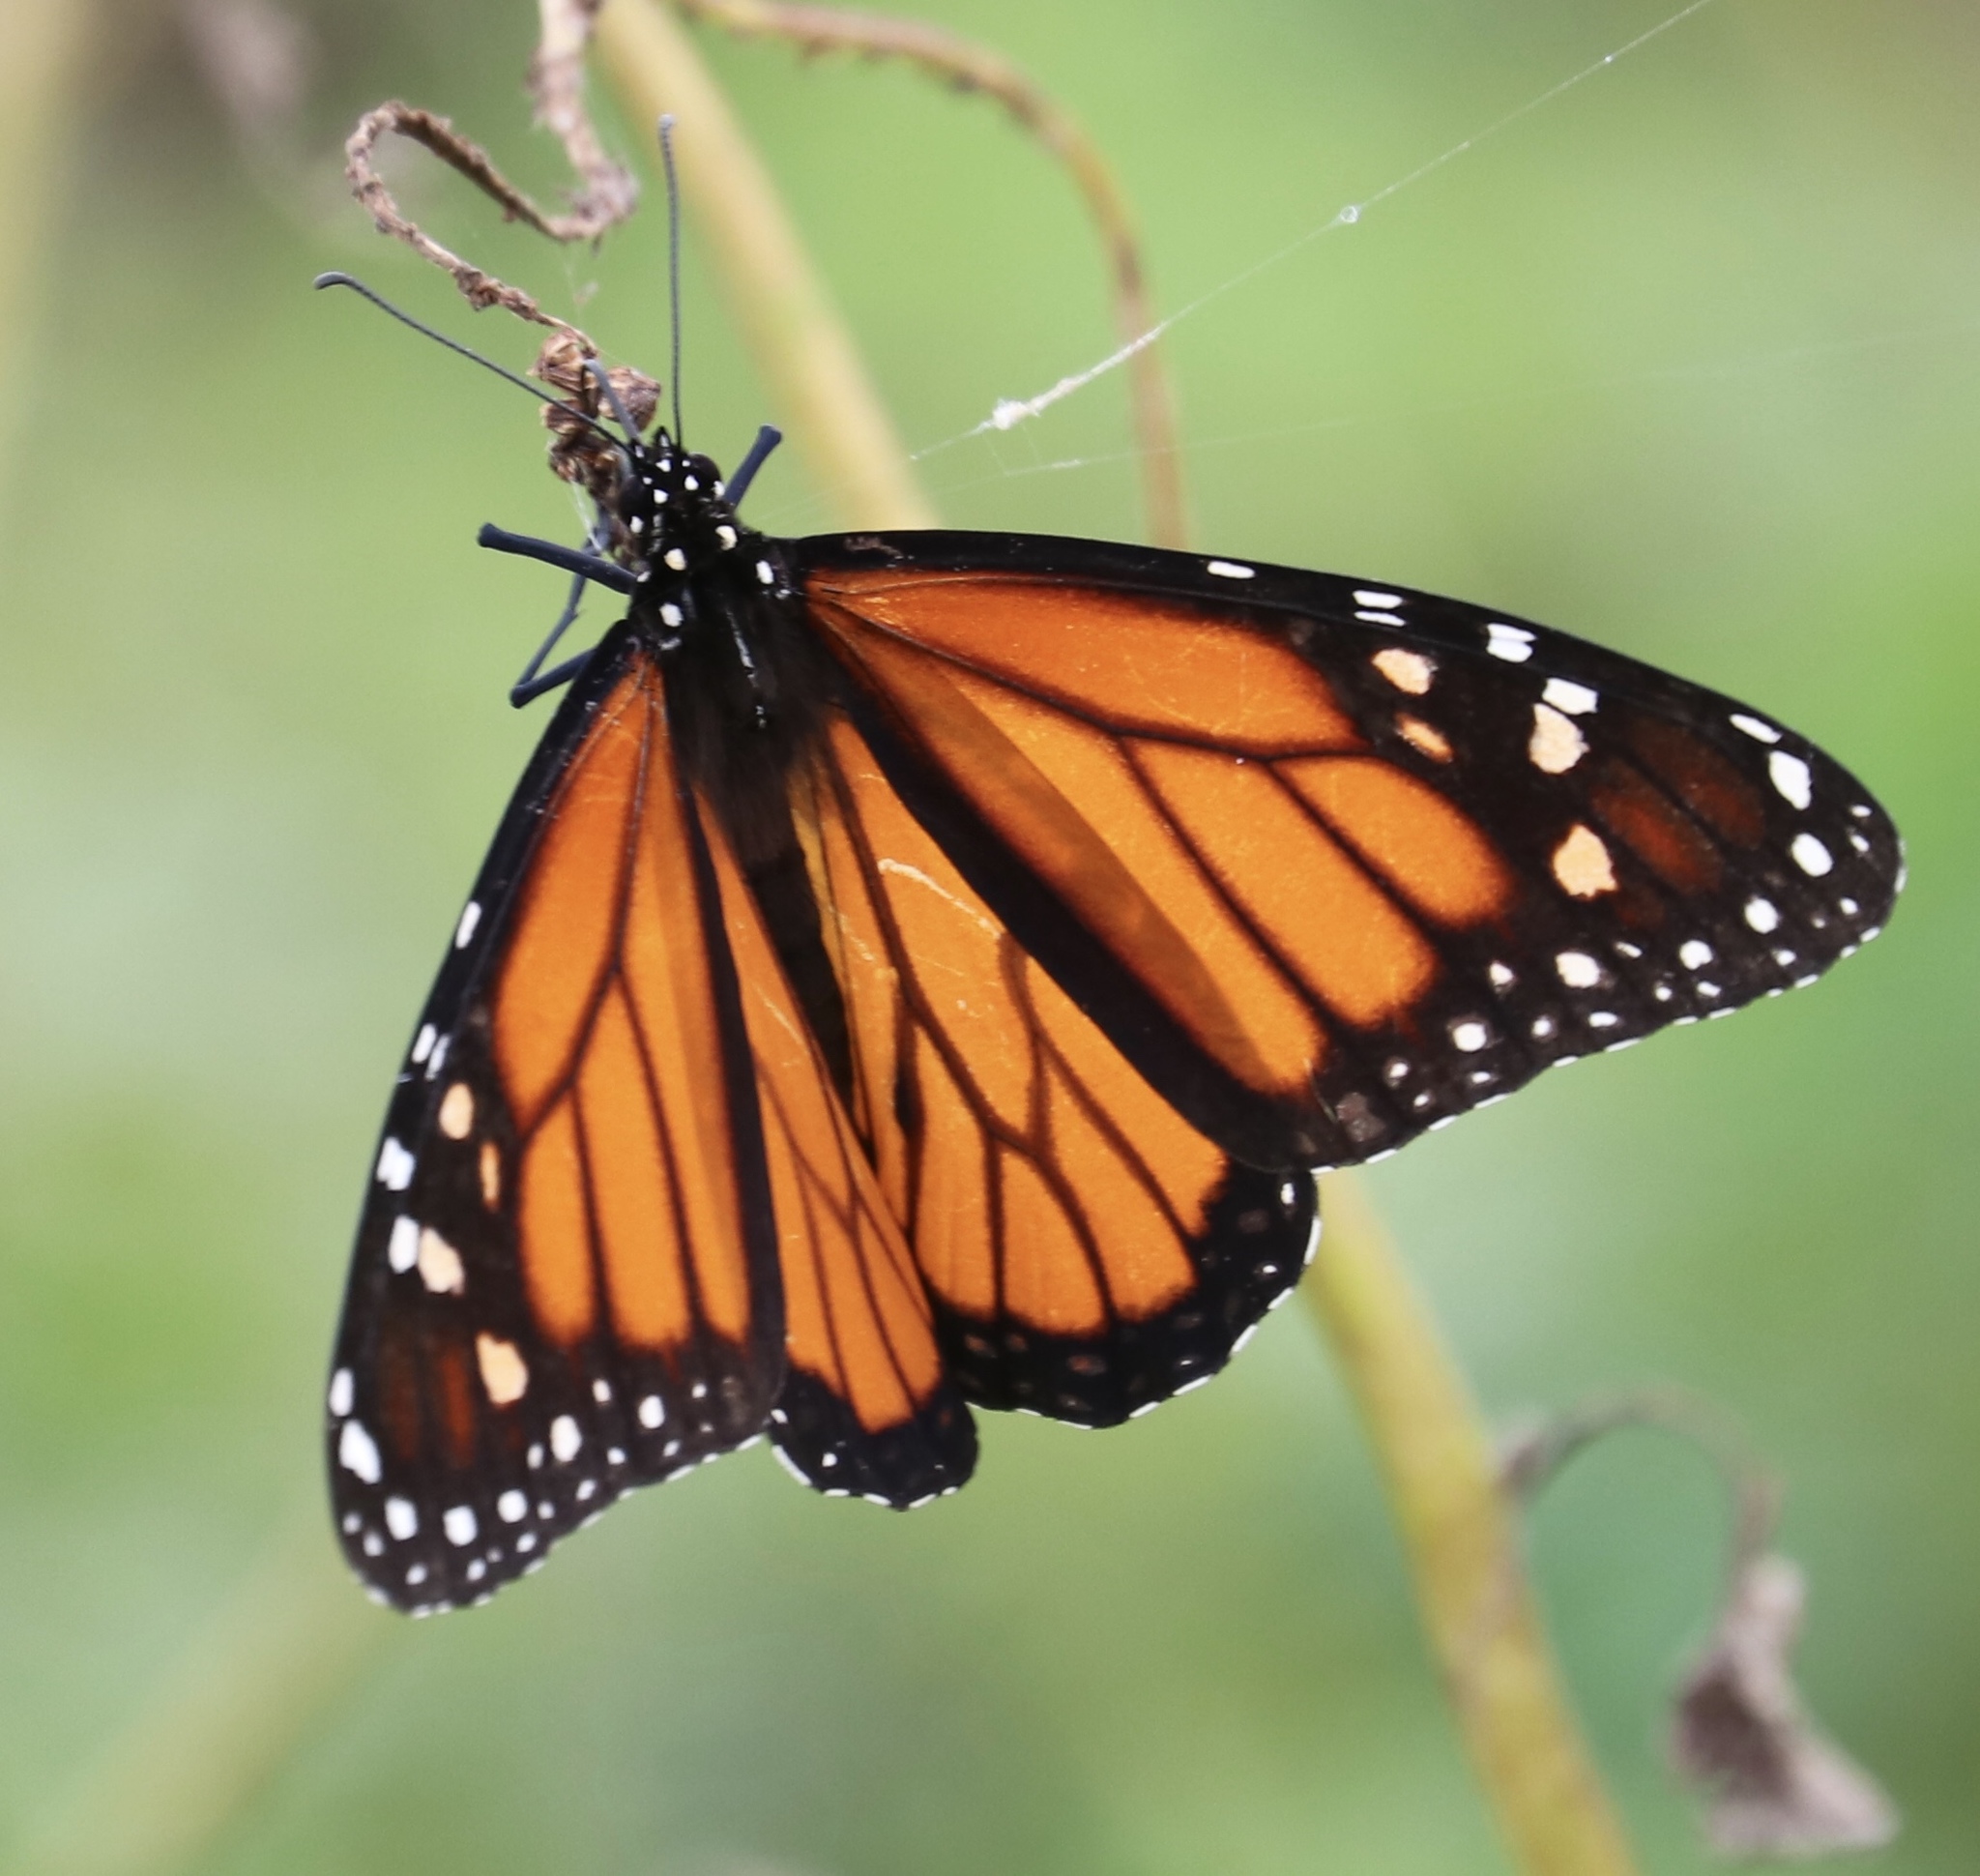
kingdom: Animalia
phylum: Arthropoda
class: Insecta
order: Lepidoptera
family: Nymphalidae
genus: Danaus
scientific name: Danaus plexippus
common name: Monarch
